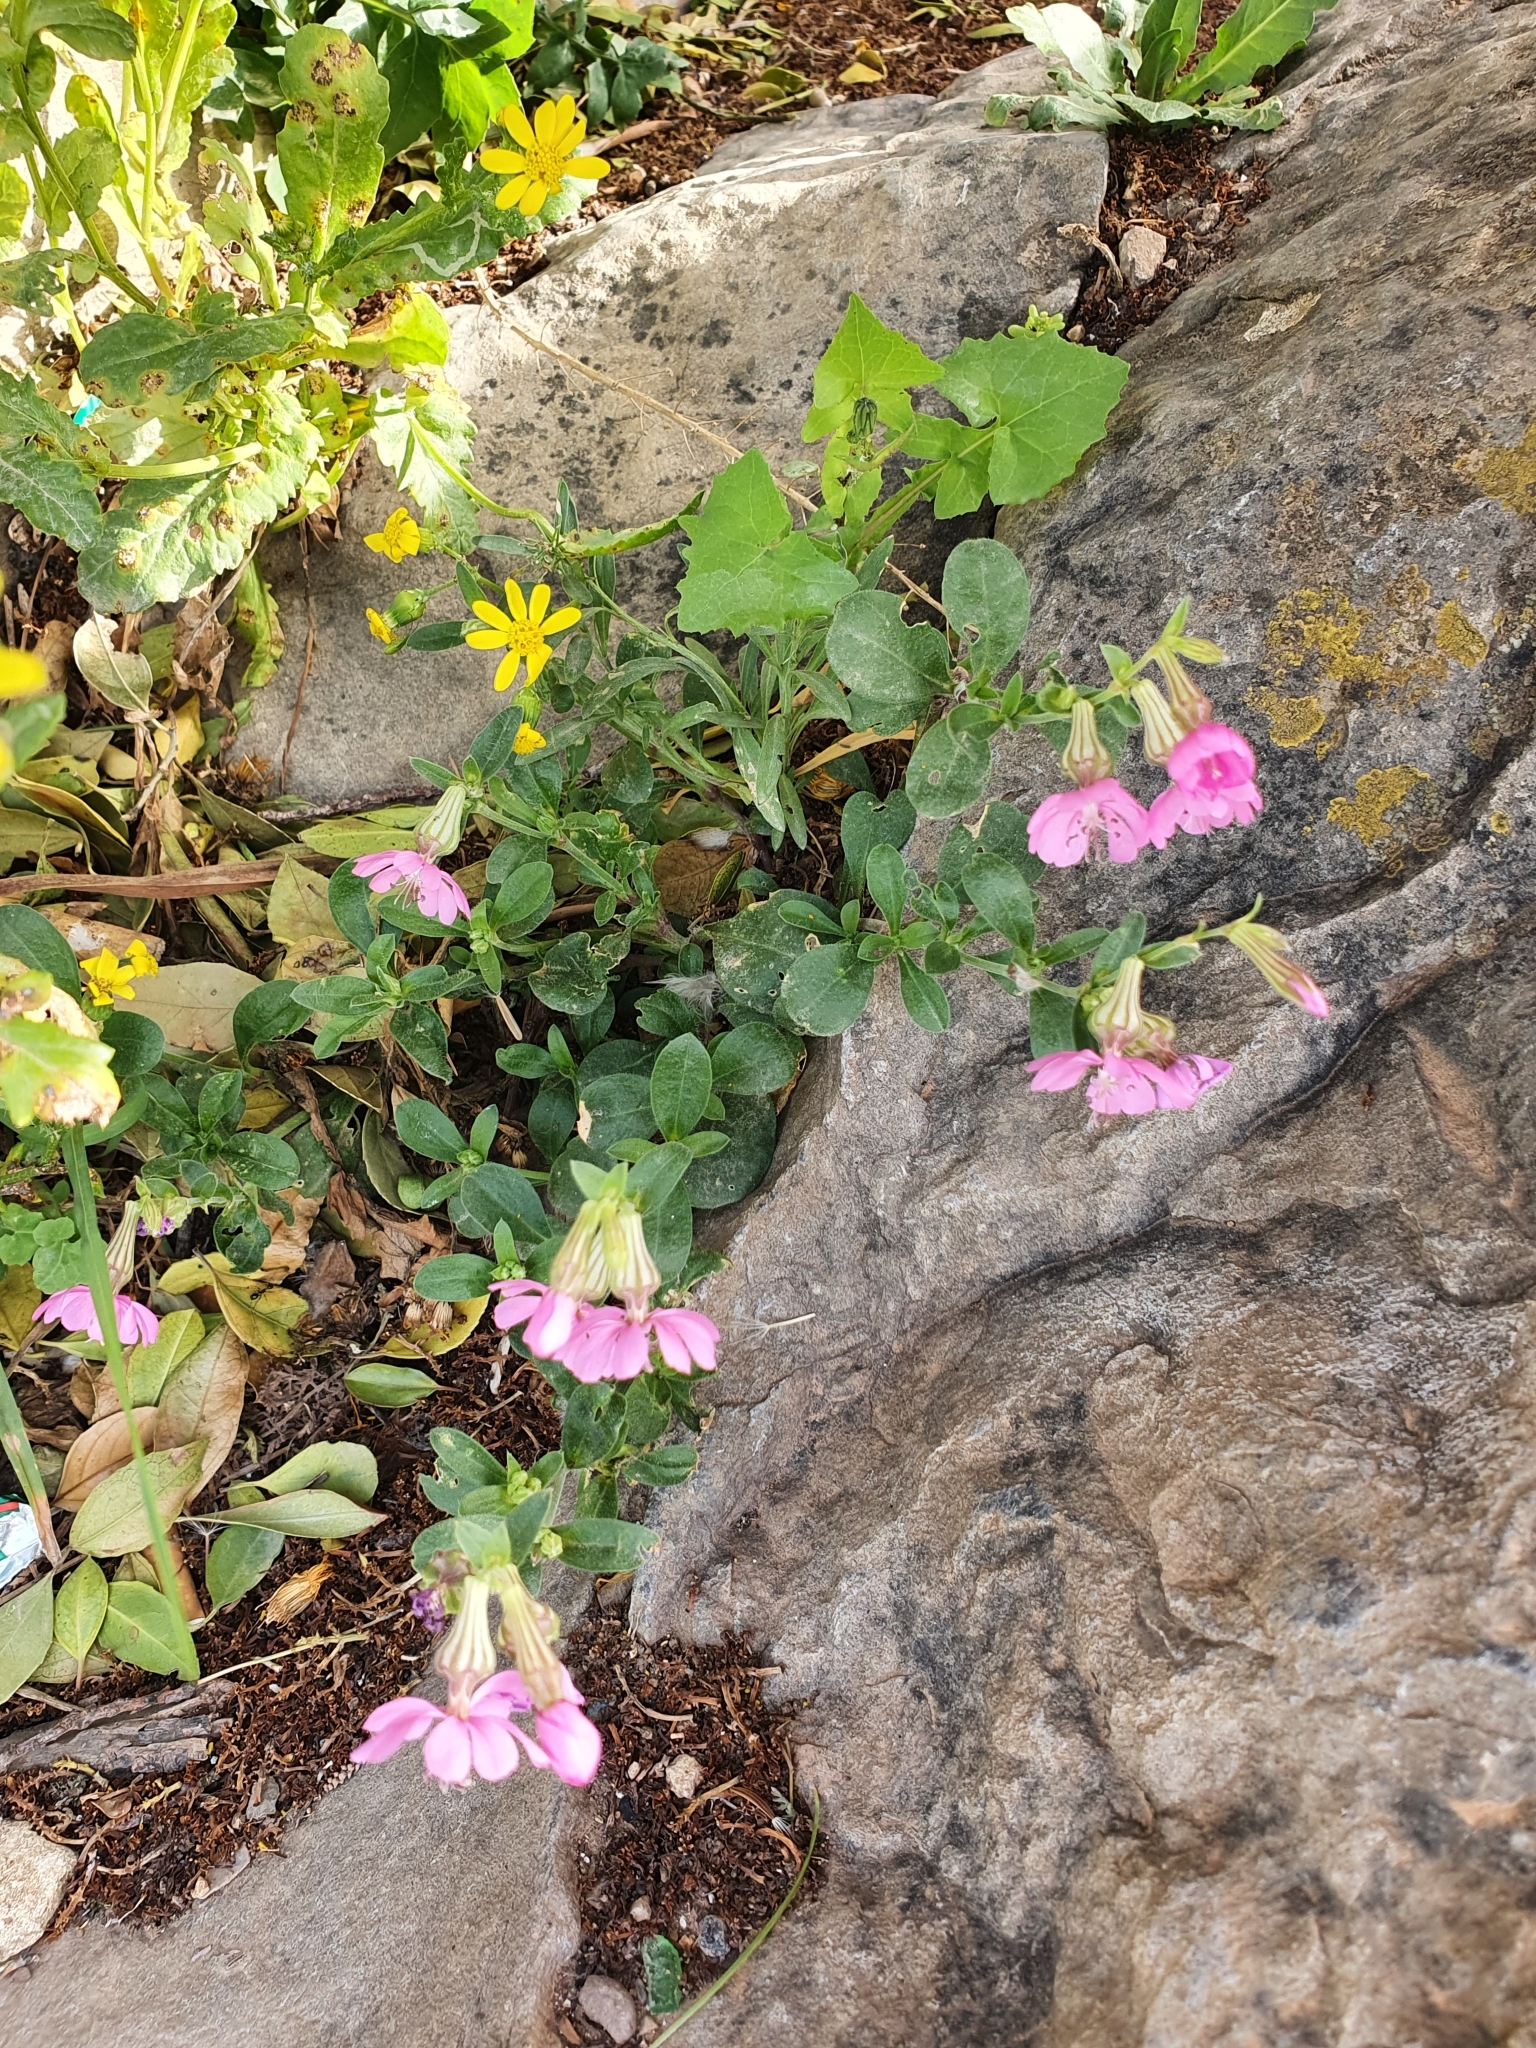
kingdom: Plantae
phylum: Tracheophyta
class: Magnoliopsida
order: Caryophyllales
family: Caryophyllaceae
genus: Silene
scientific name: Silene colorata
